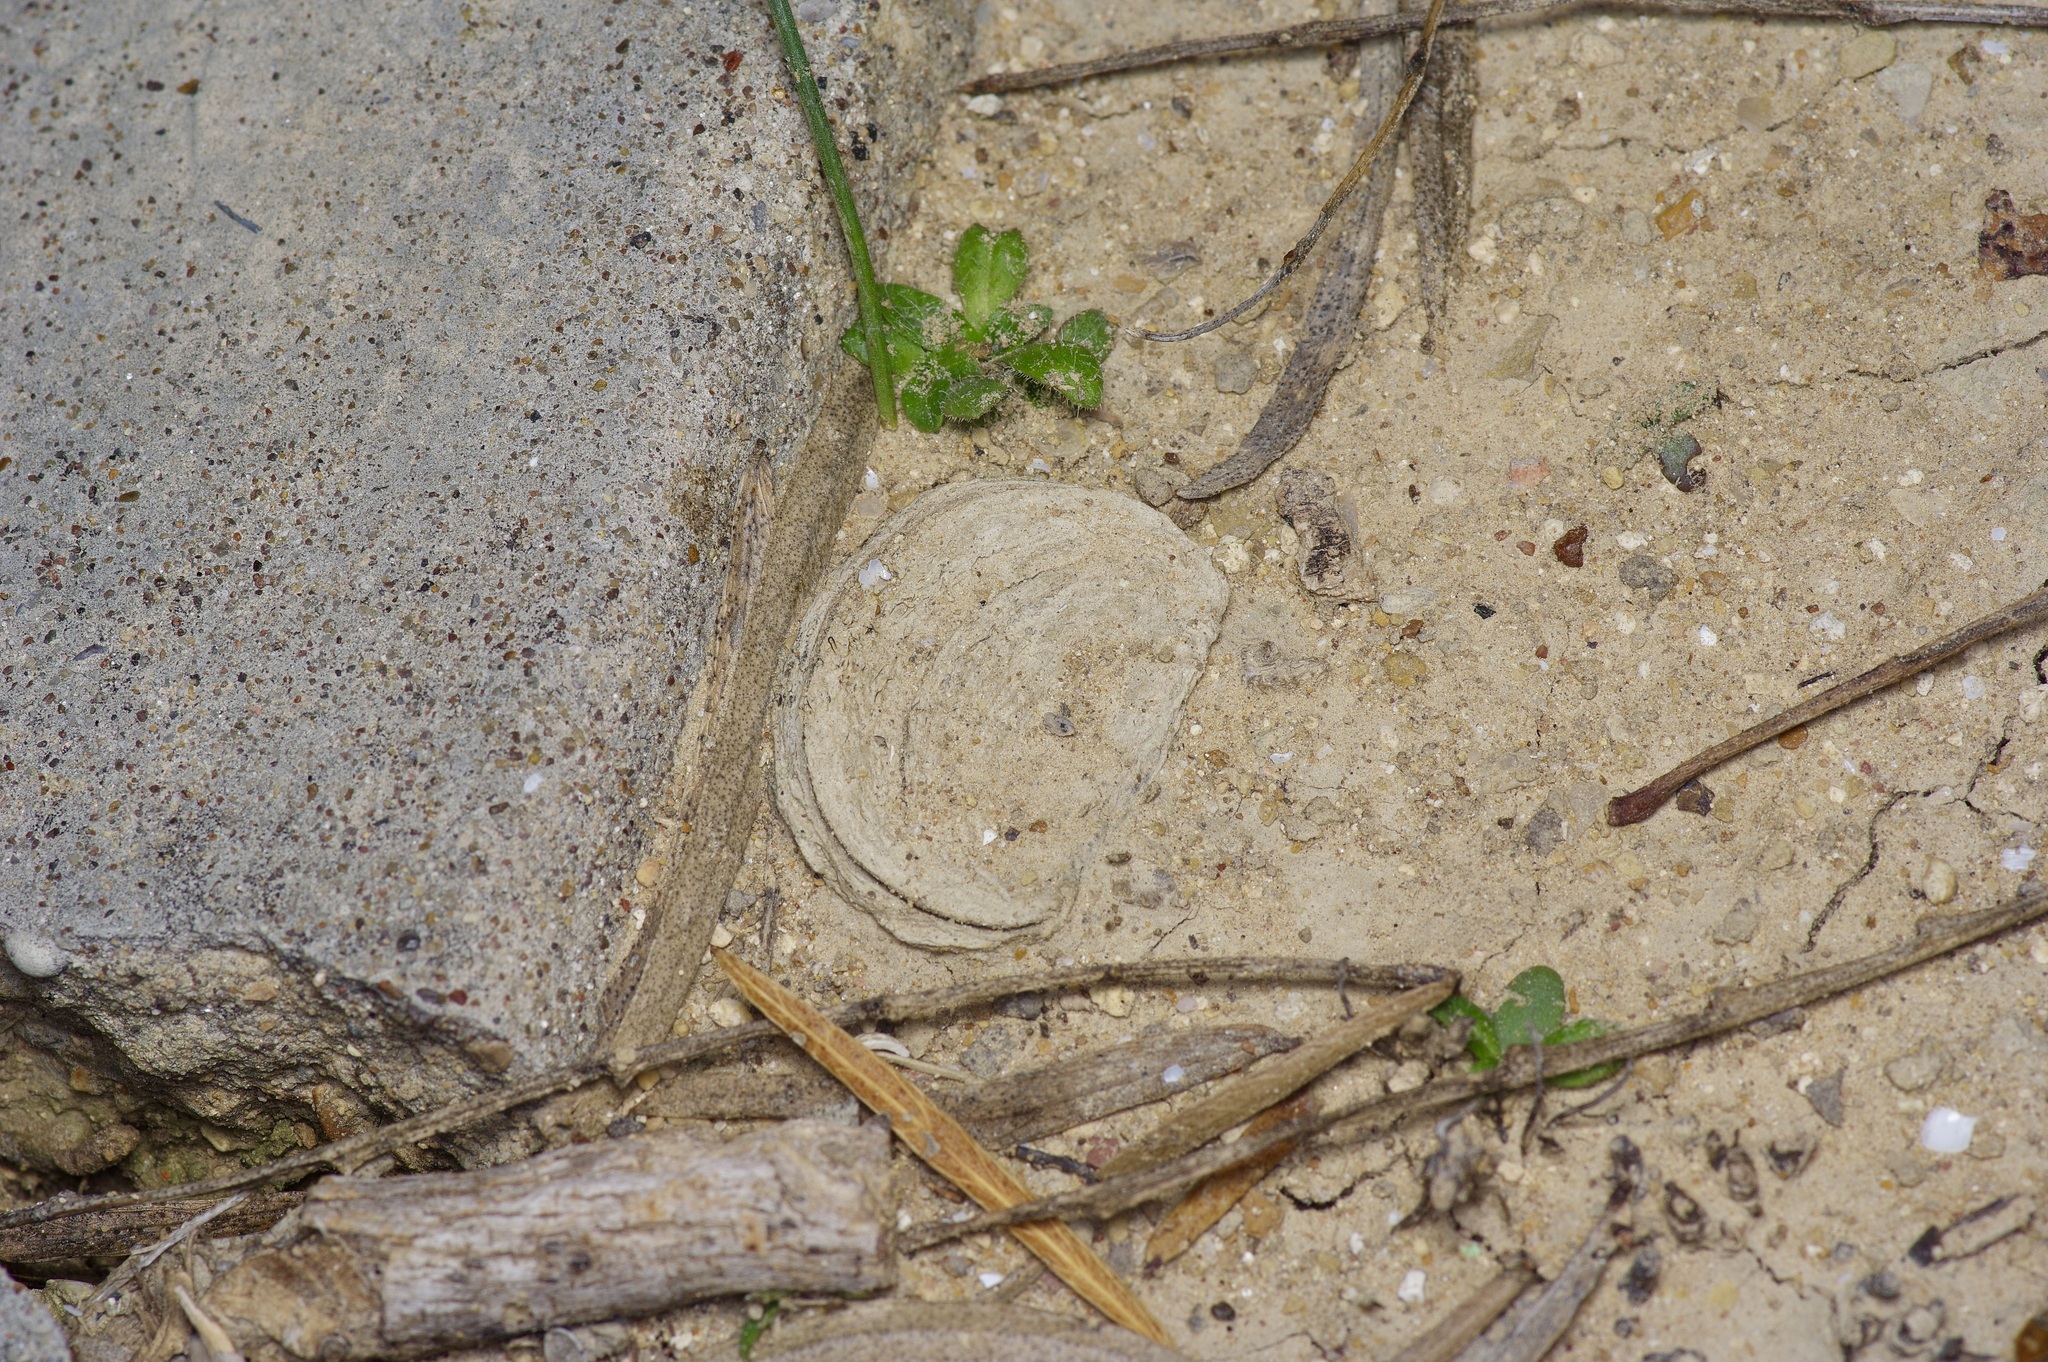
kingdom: Animalia
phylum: Arthropoda
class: Arachnida
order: Araneae
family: Halonoproctidae
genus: Ummidia
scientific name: Ummidia audouini
